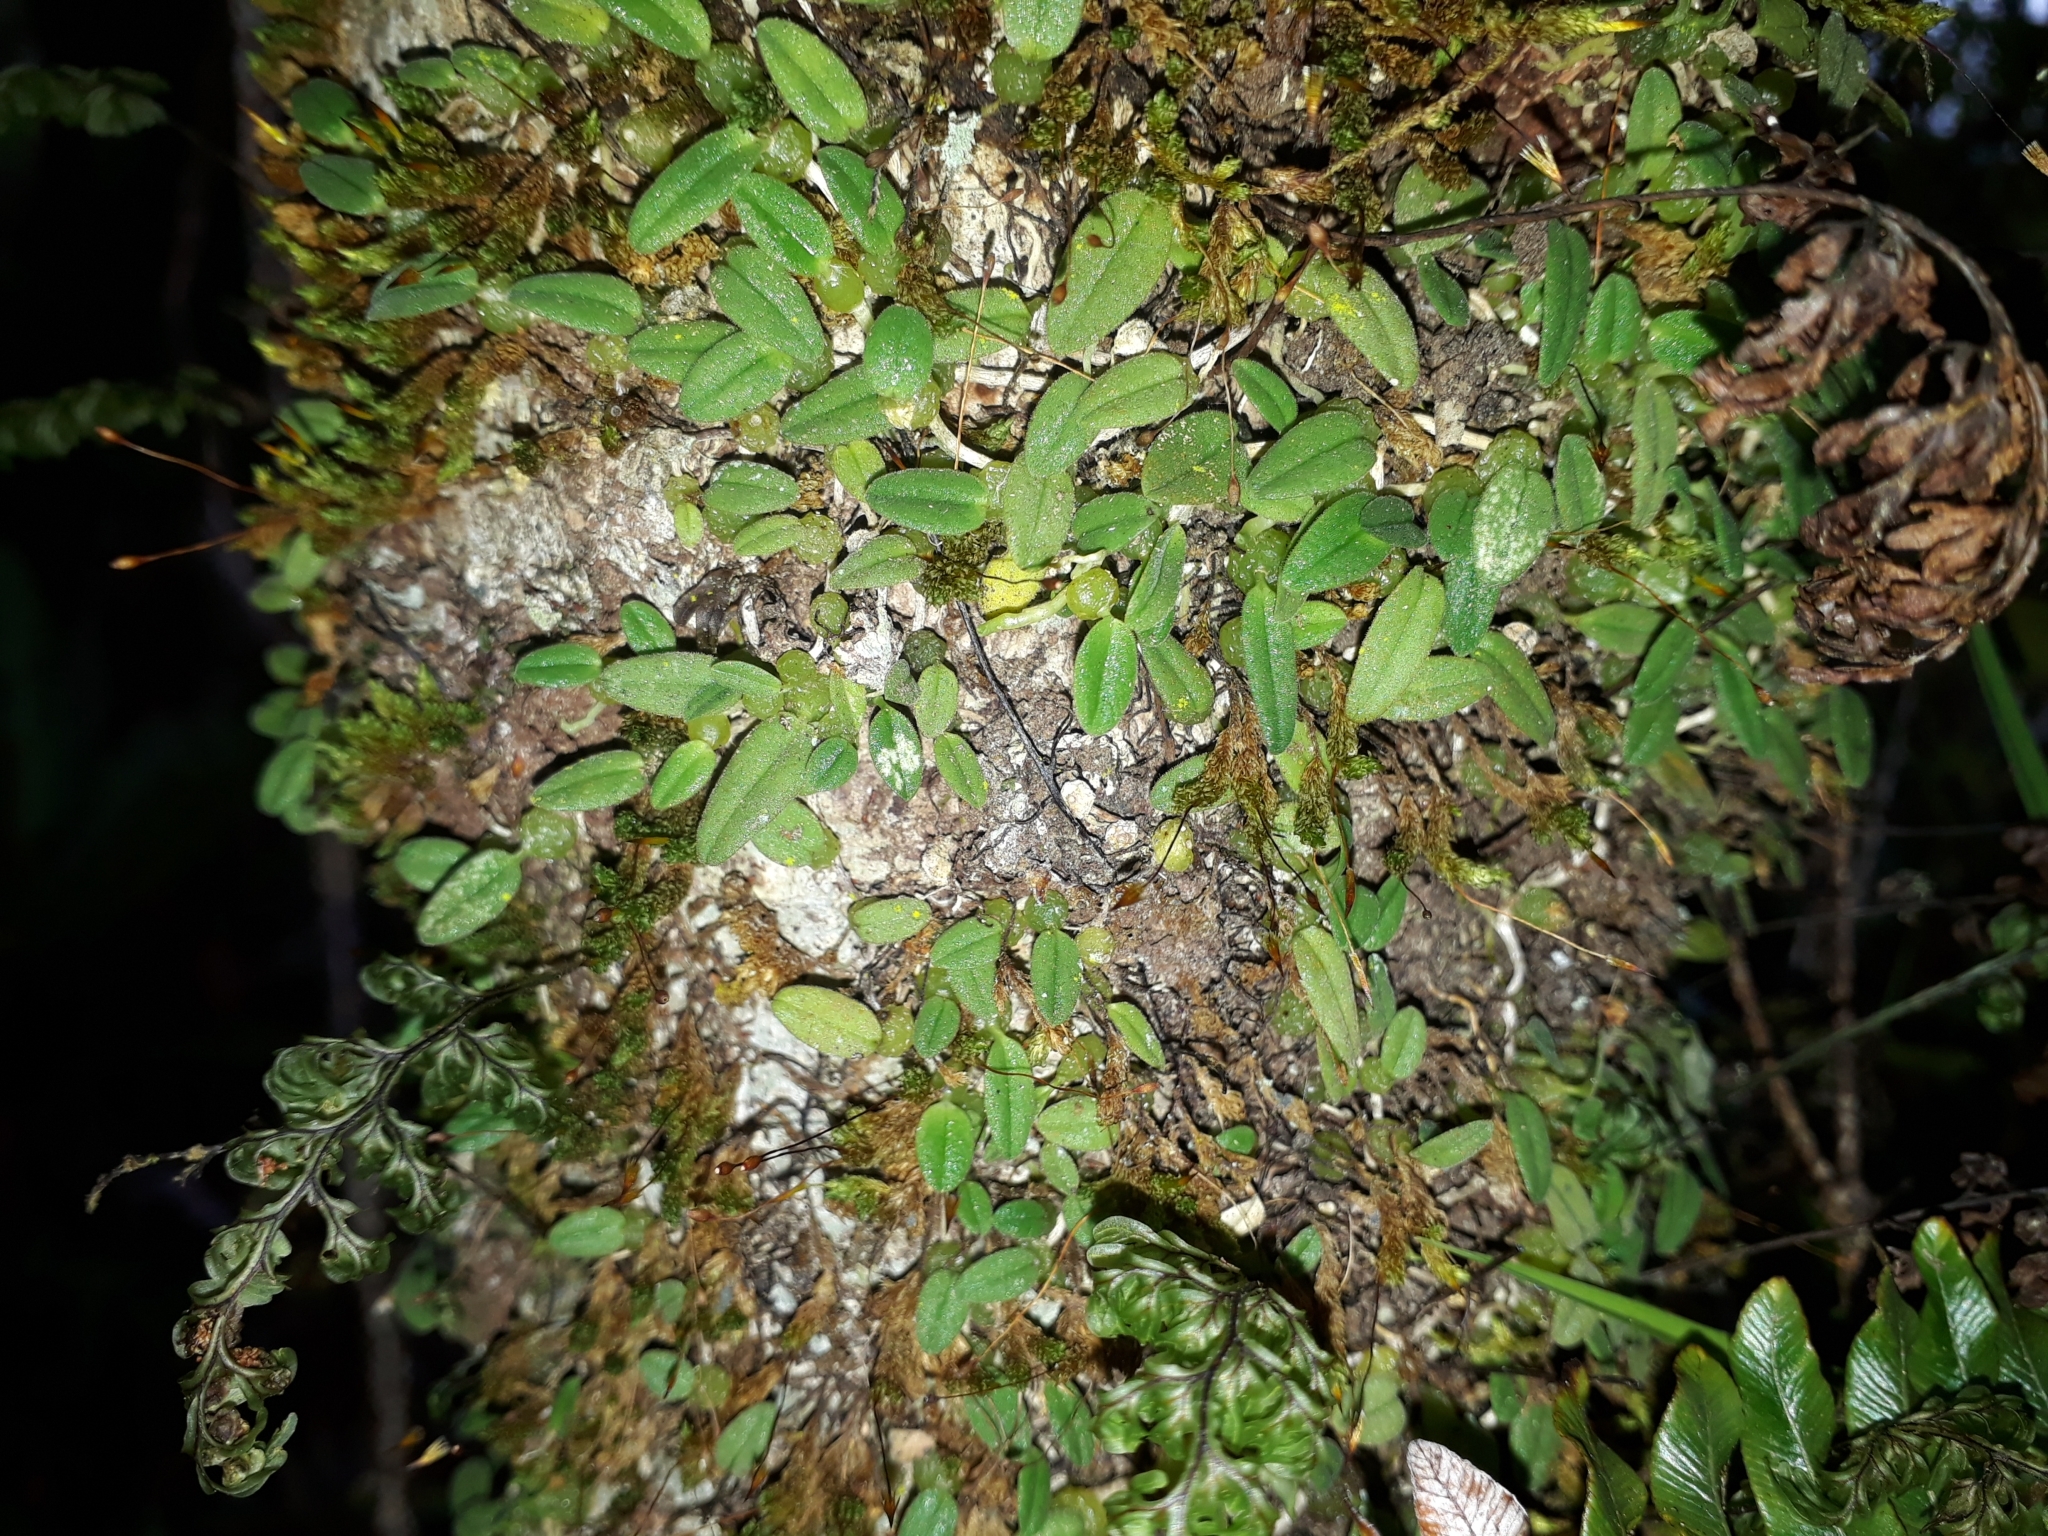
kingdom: Plantae
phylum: Tracheophyta
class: Liliopsida
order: Asparagales
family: Orchidaceae
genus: Bulbophyllum
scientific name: Bulbophyllum pygmaeum
